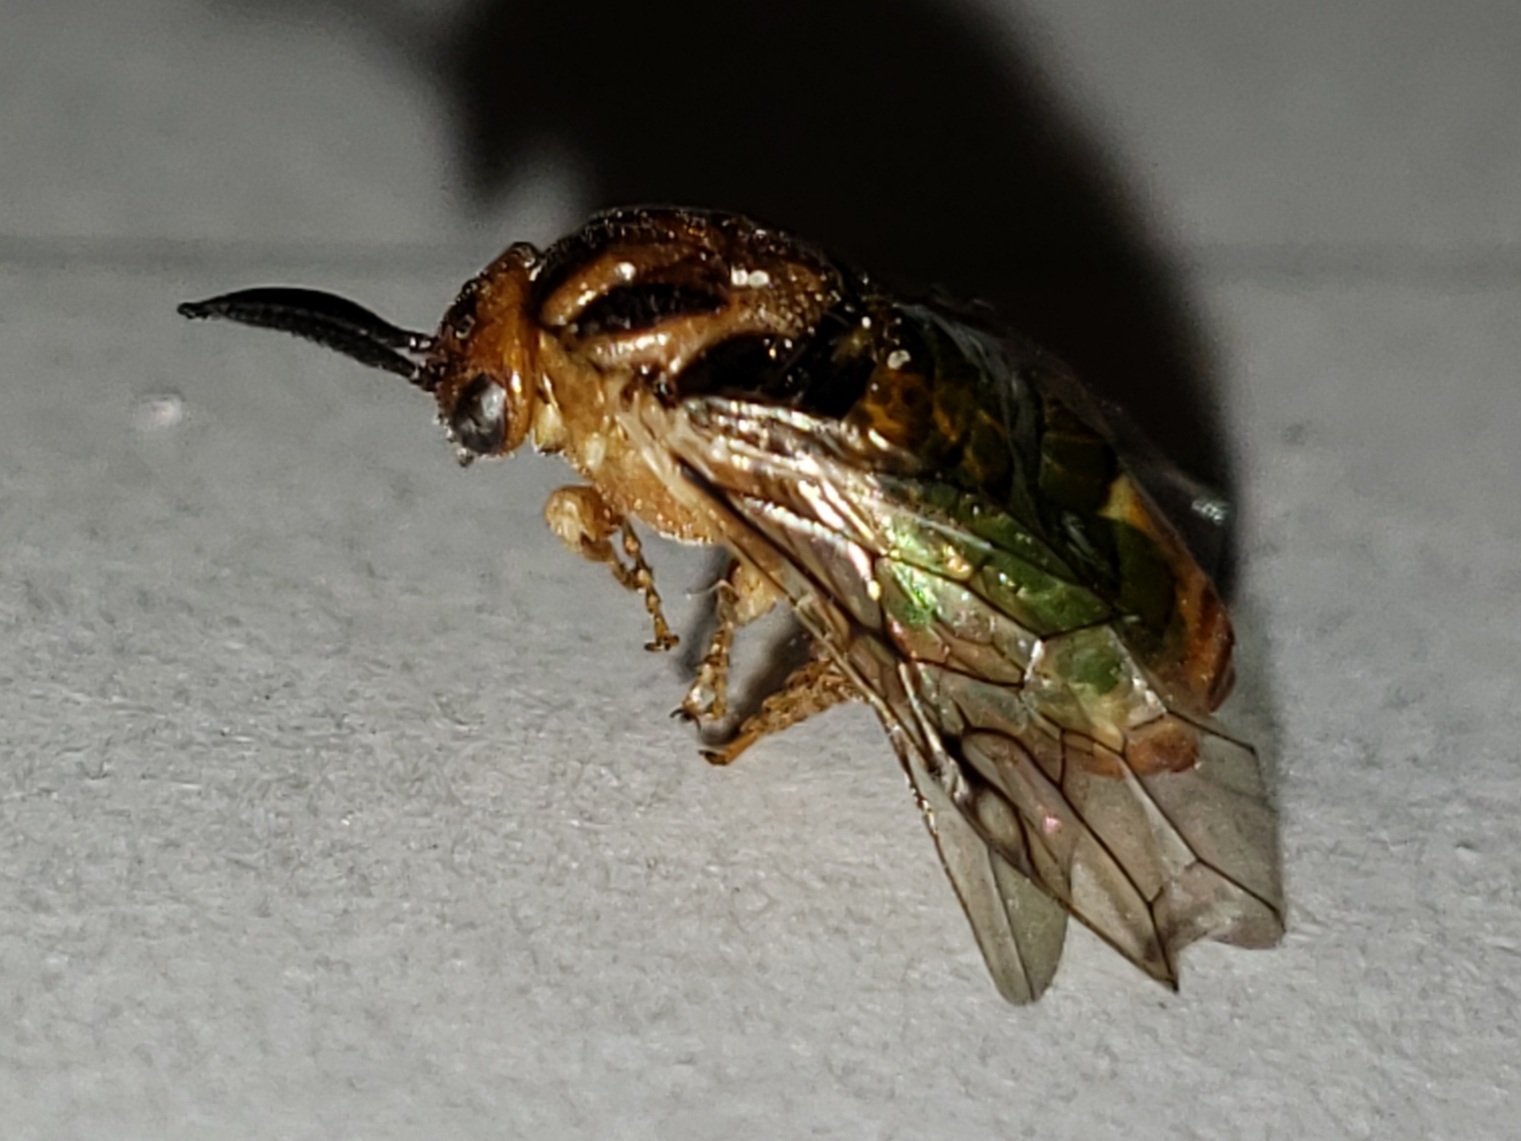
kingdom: Animalia
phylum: Arthropoda
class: Insecta
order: Hymenoptera
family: Diprionidae
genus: Neodiprion
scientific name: Neodiprion
